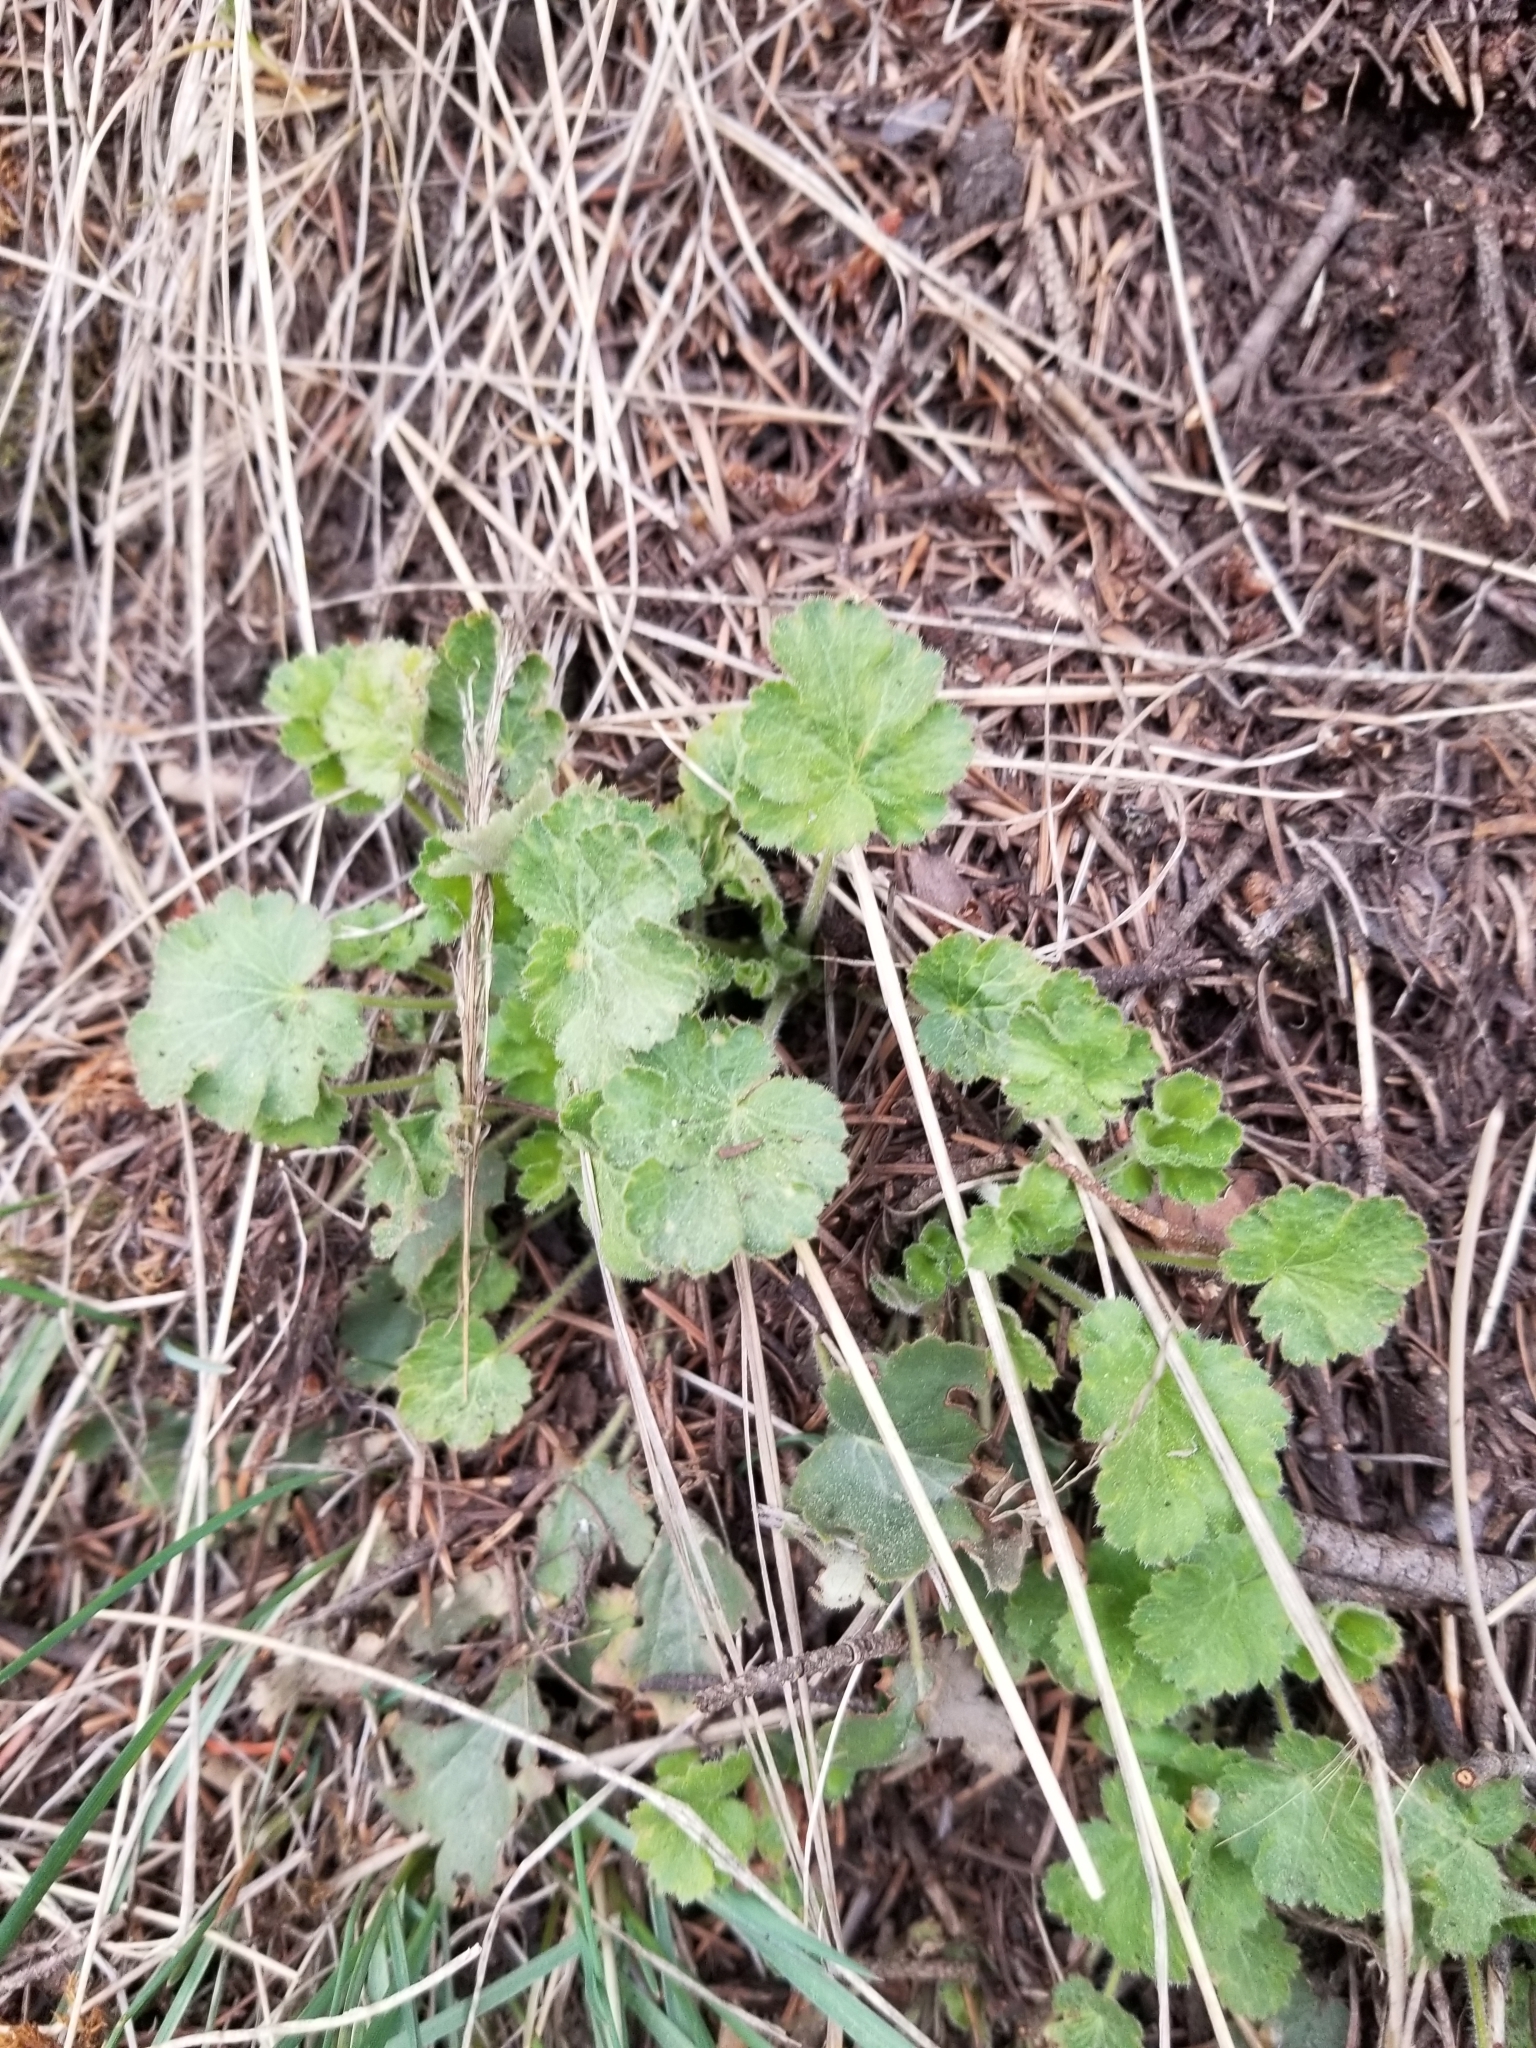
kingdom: Plantae
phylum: Tracheophyta
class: Magnoliopsida
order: Saxifragales
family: Saxifragaceae
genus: Heuchera
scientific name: Heuchera cylindrica
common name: Mat alumroot
